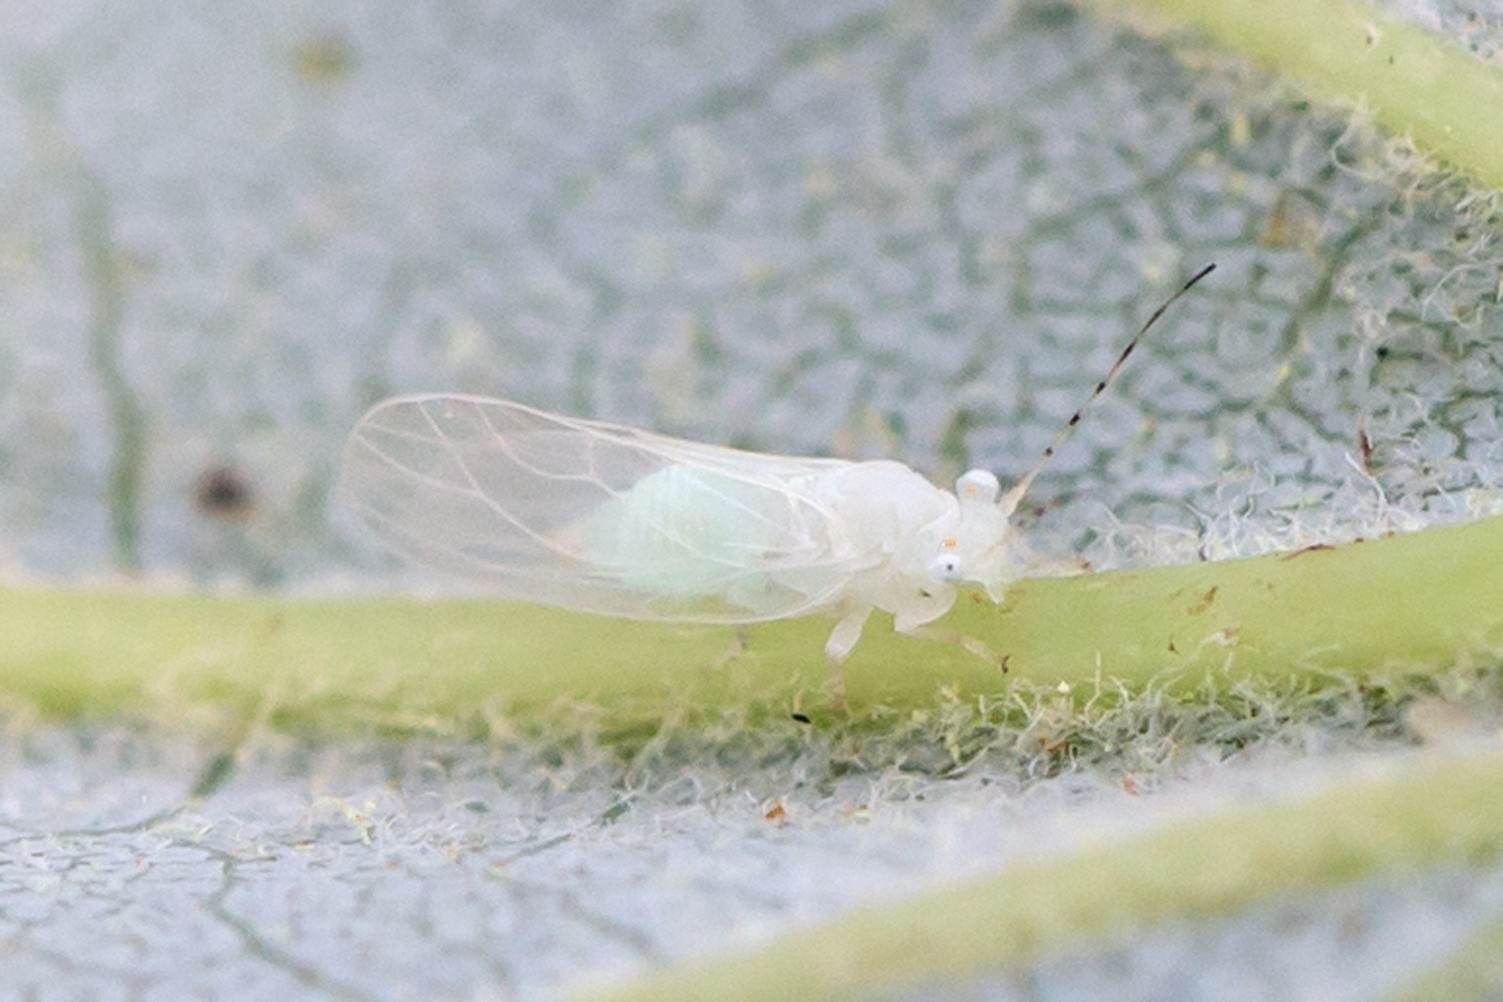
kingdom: Animalia
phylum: Arthropoda
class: Insecta
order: Hemiptera
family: Psyllidae
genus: Cacopsylla
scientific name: Cacopsylla annulata
